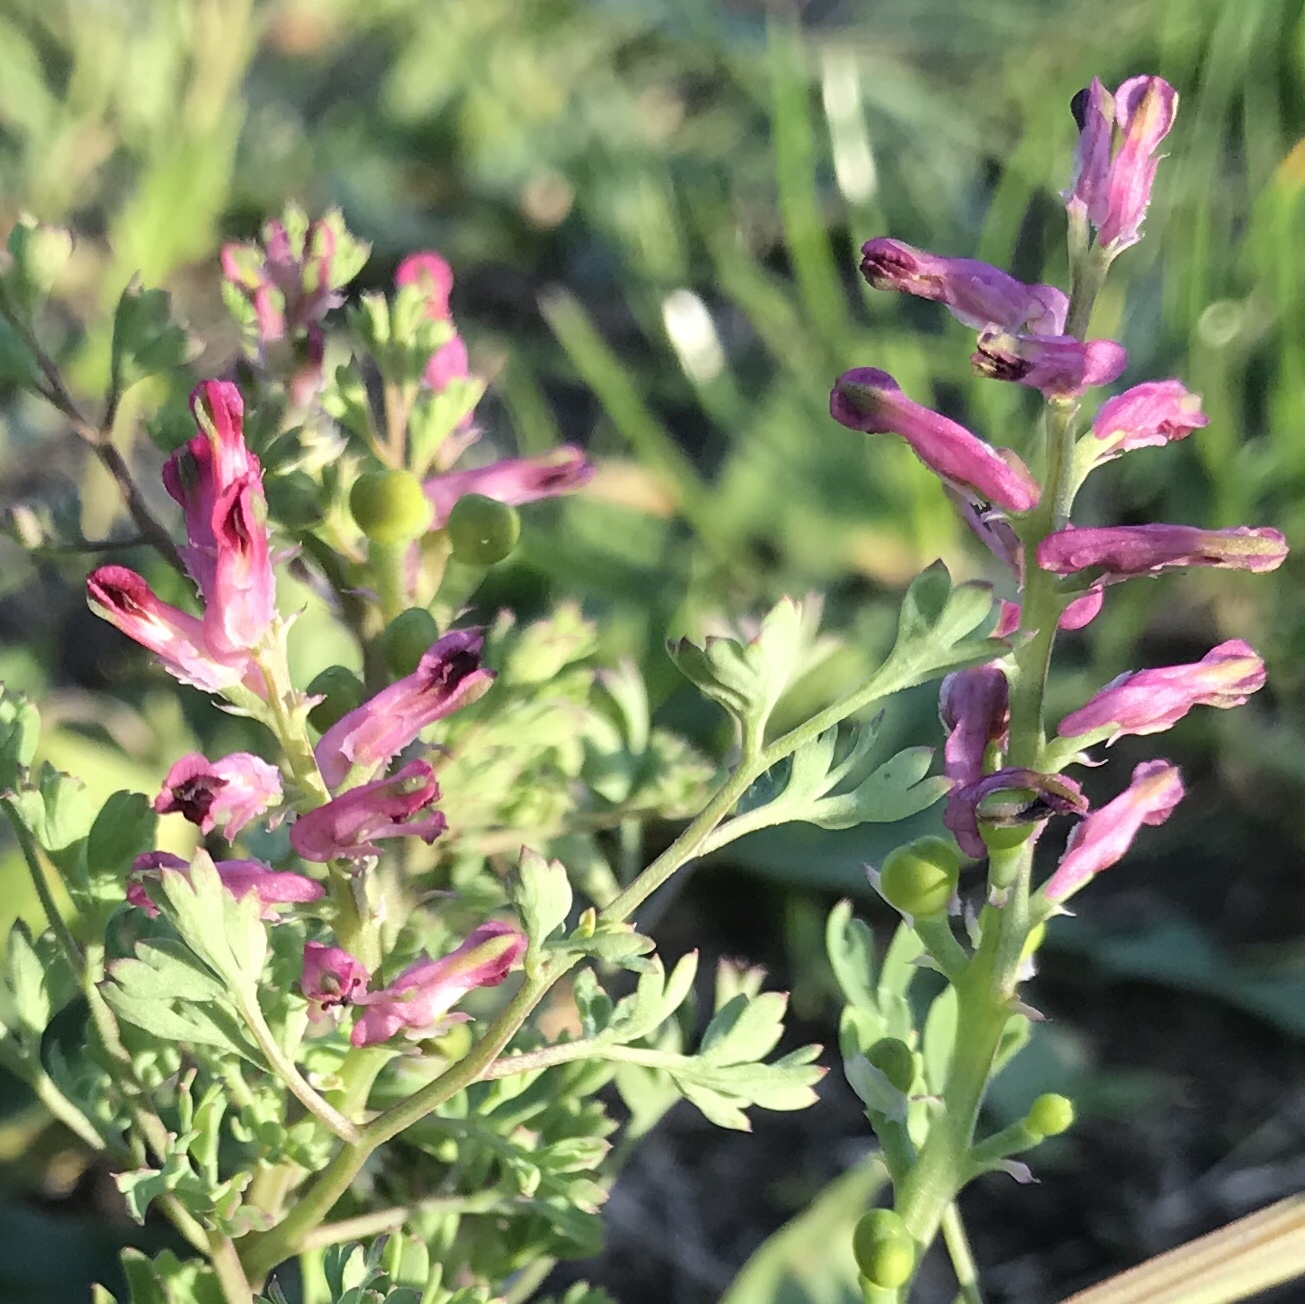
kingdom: Plantae
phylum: Tracheophyta
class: Magnoliopsida
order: Ranunculales
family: Papaveraceae
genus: Fumaria
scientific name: Fumaria officinalis
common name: Common fumitory
